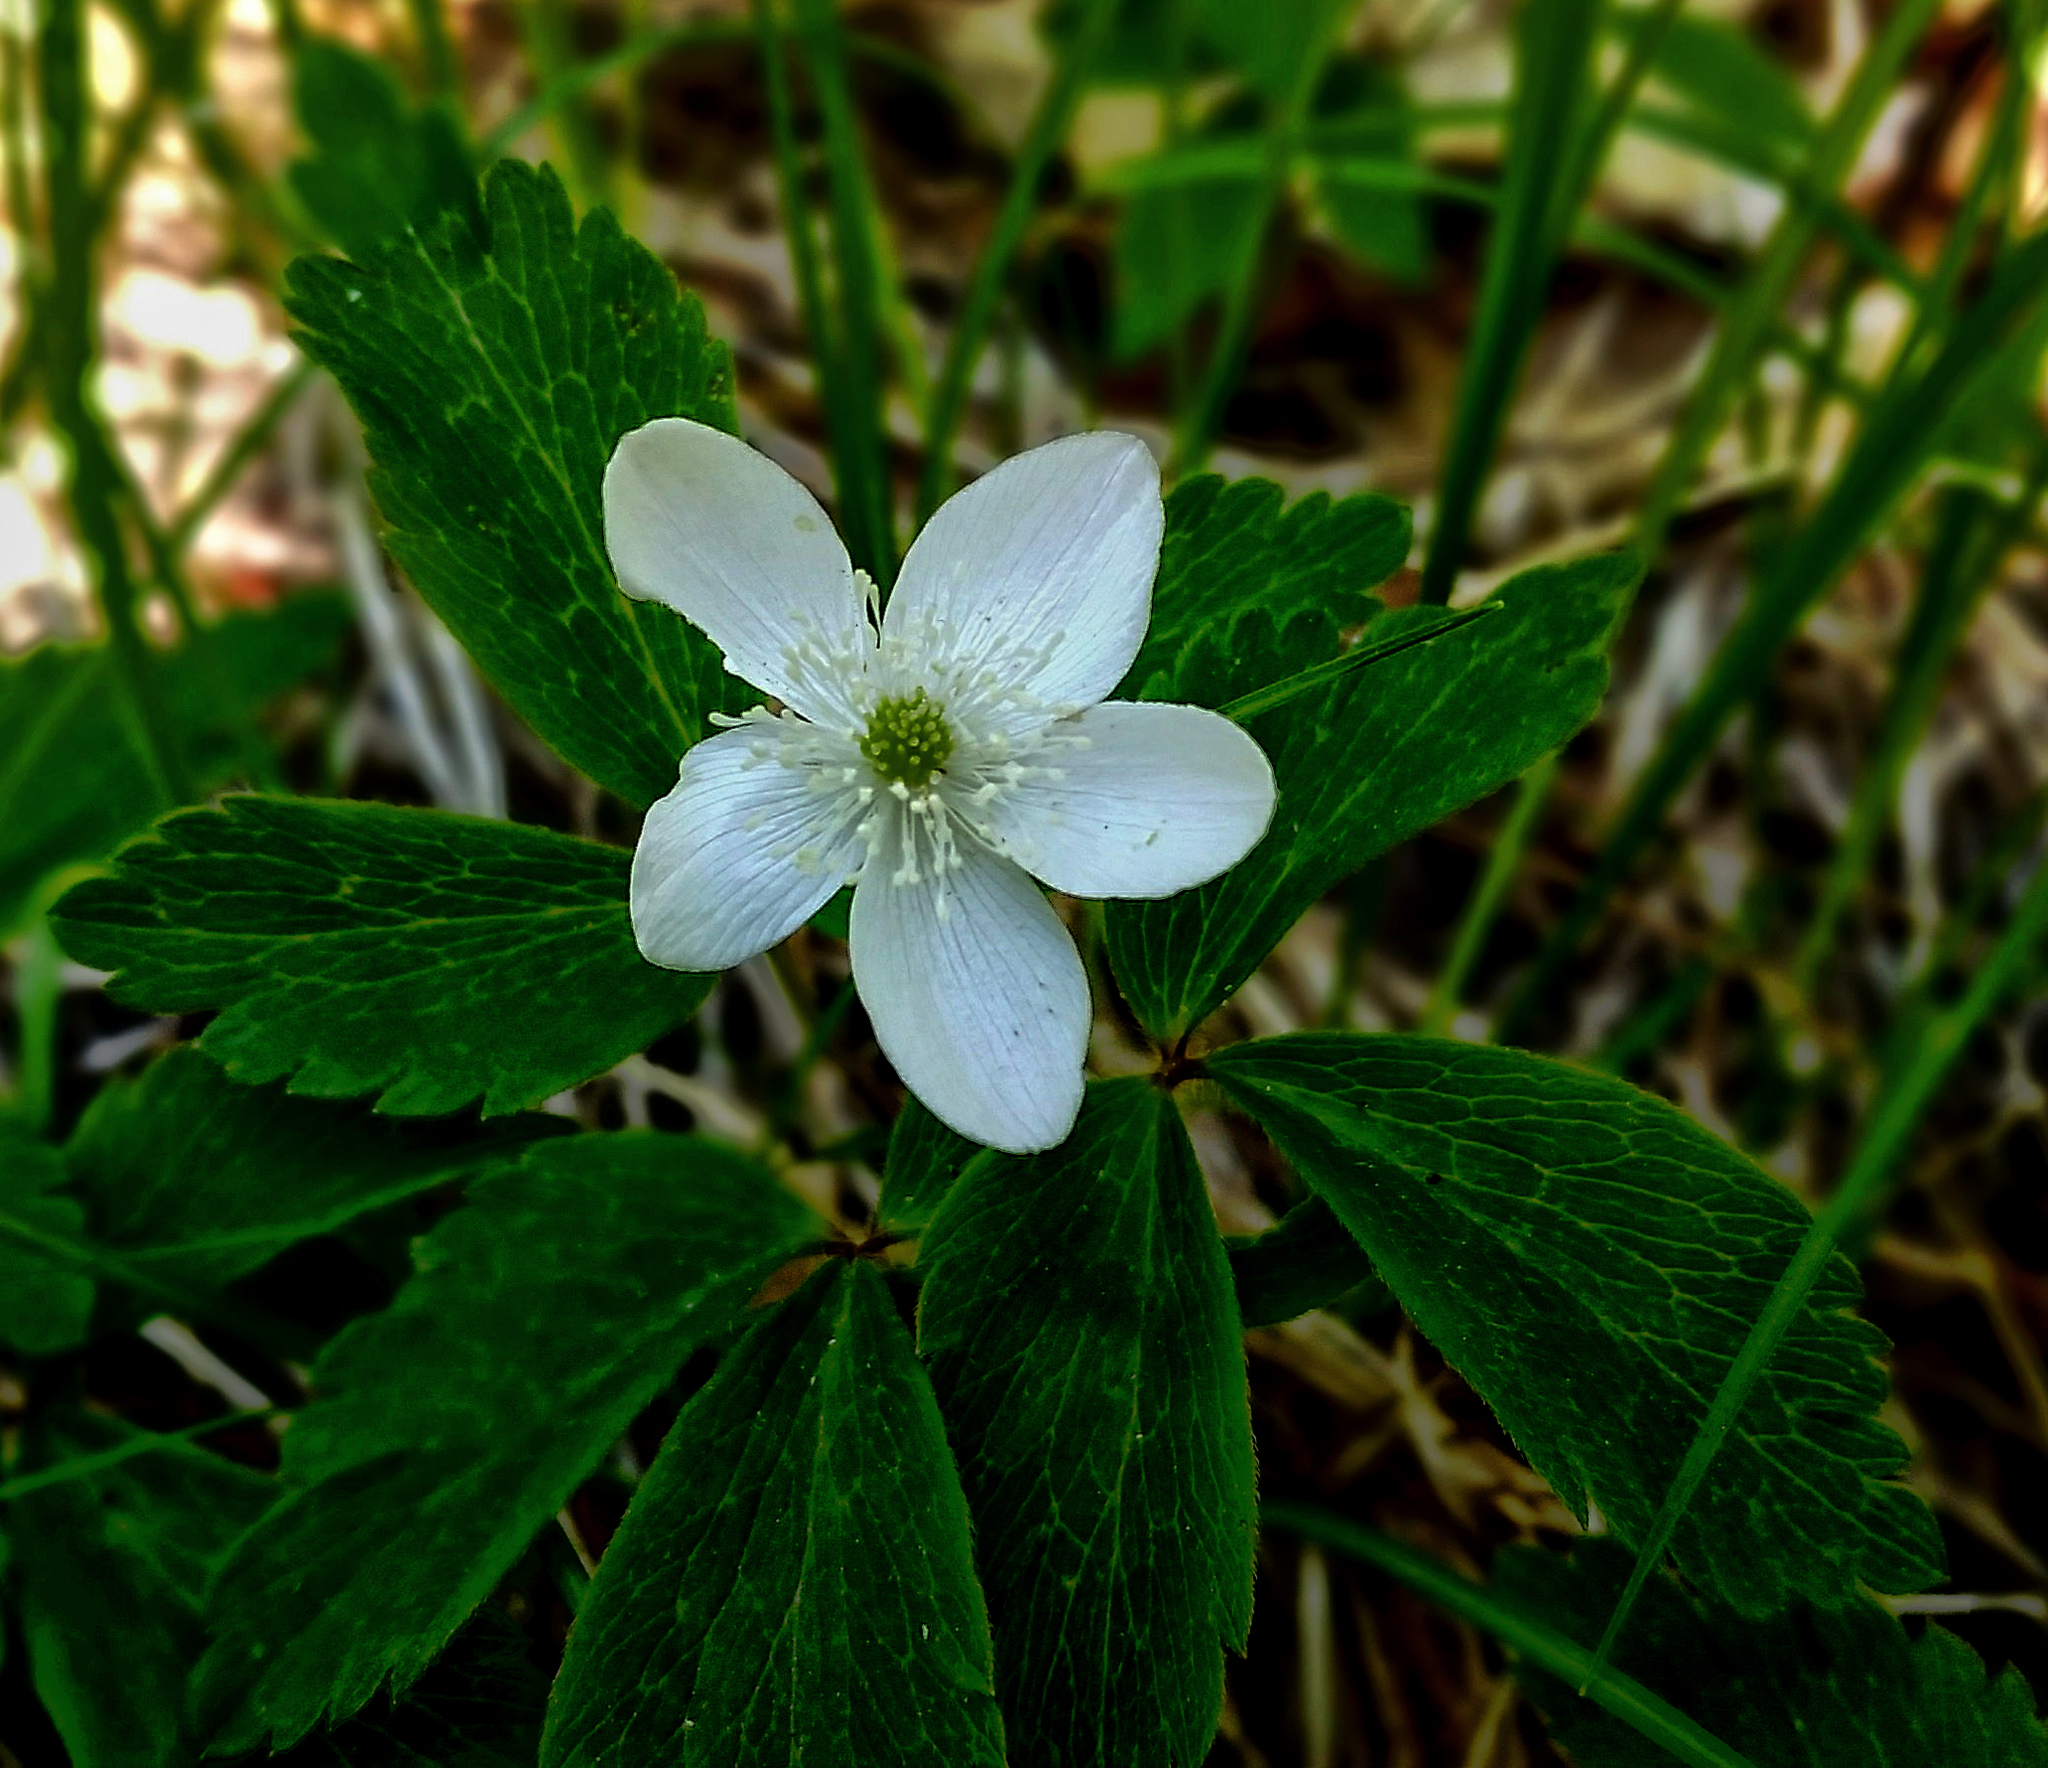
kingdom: Plantae
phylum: Tracheophyta
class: Magnoliopsida
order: Ranunculales
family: Ranunculaceae
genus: Anemone
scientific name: Anemone quinquefolia
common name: Wood anemone
